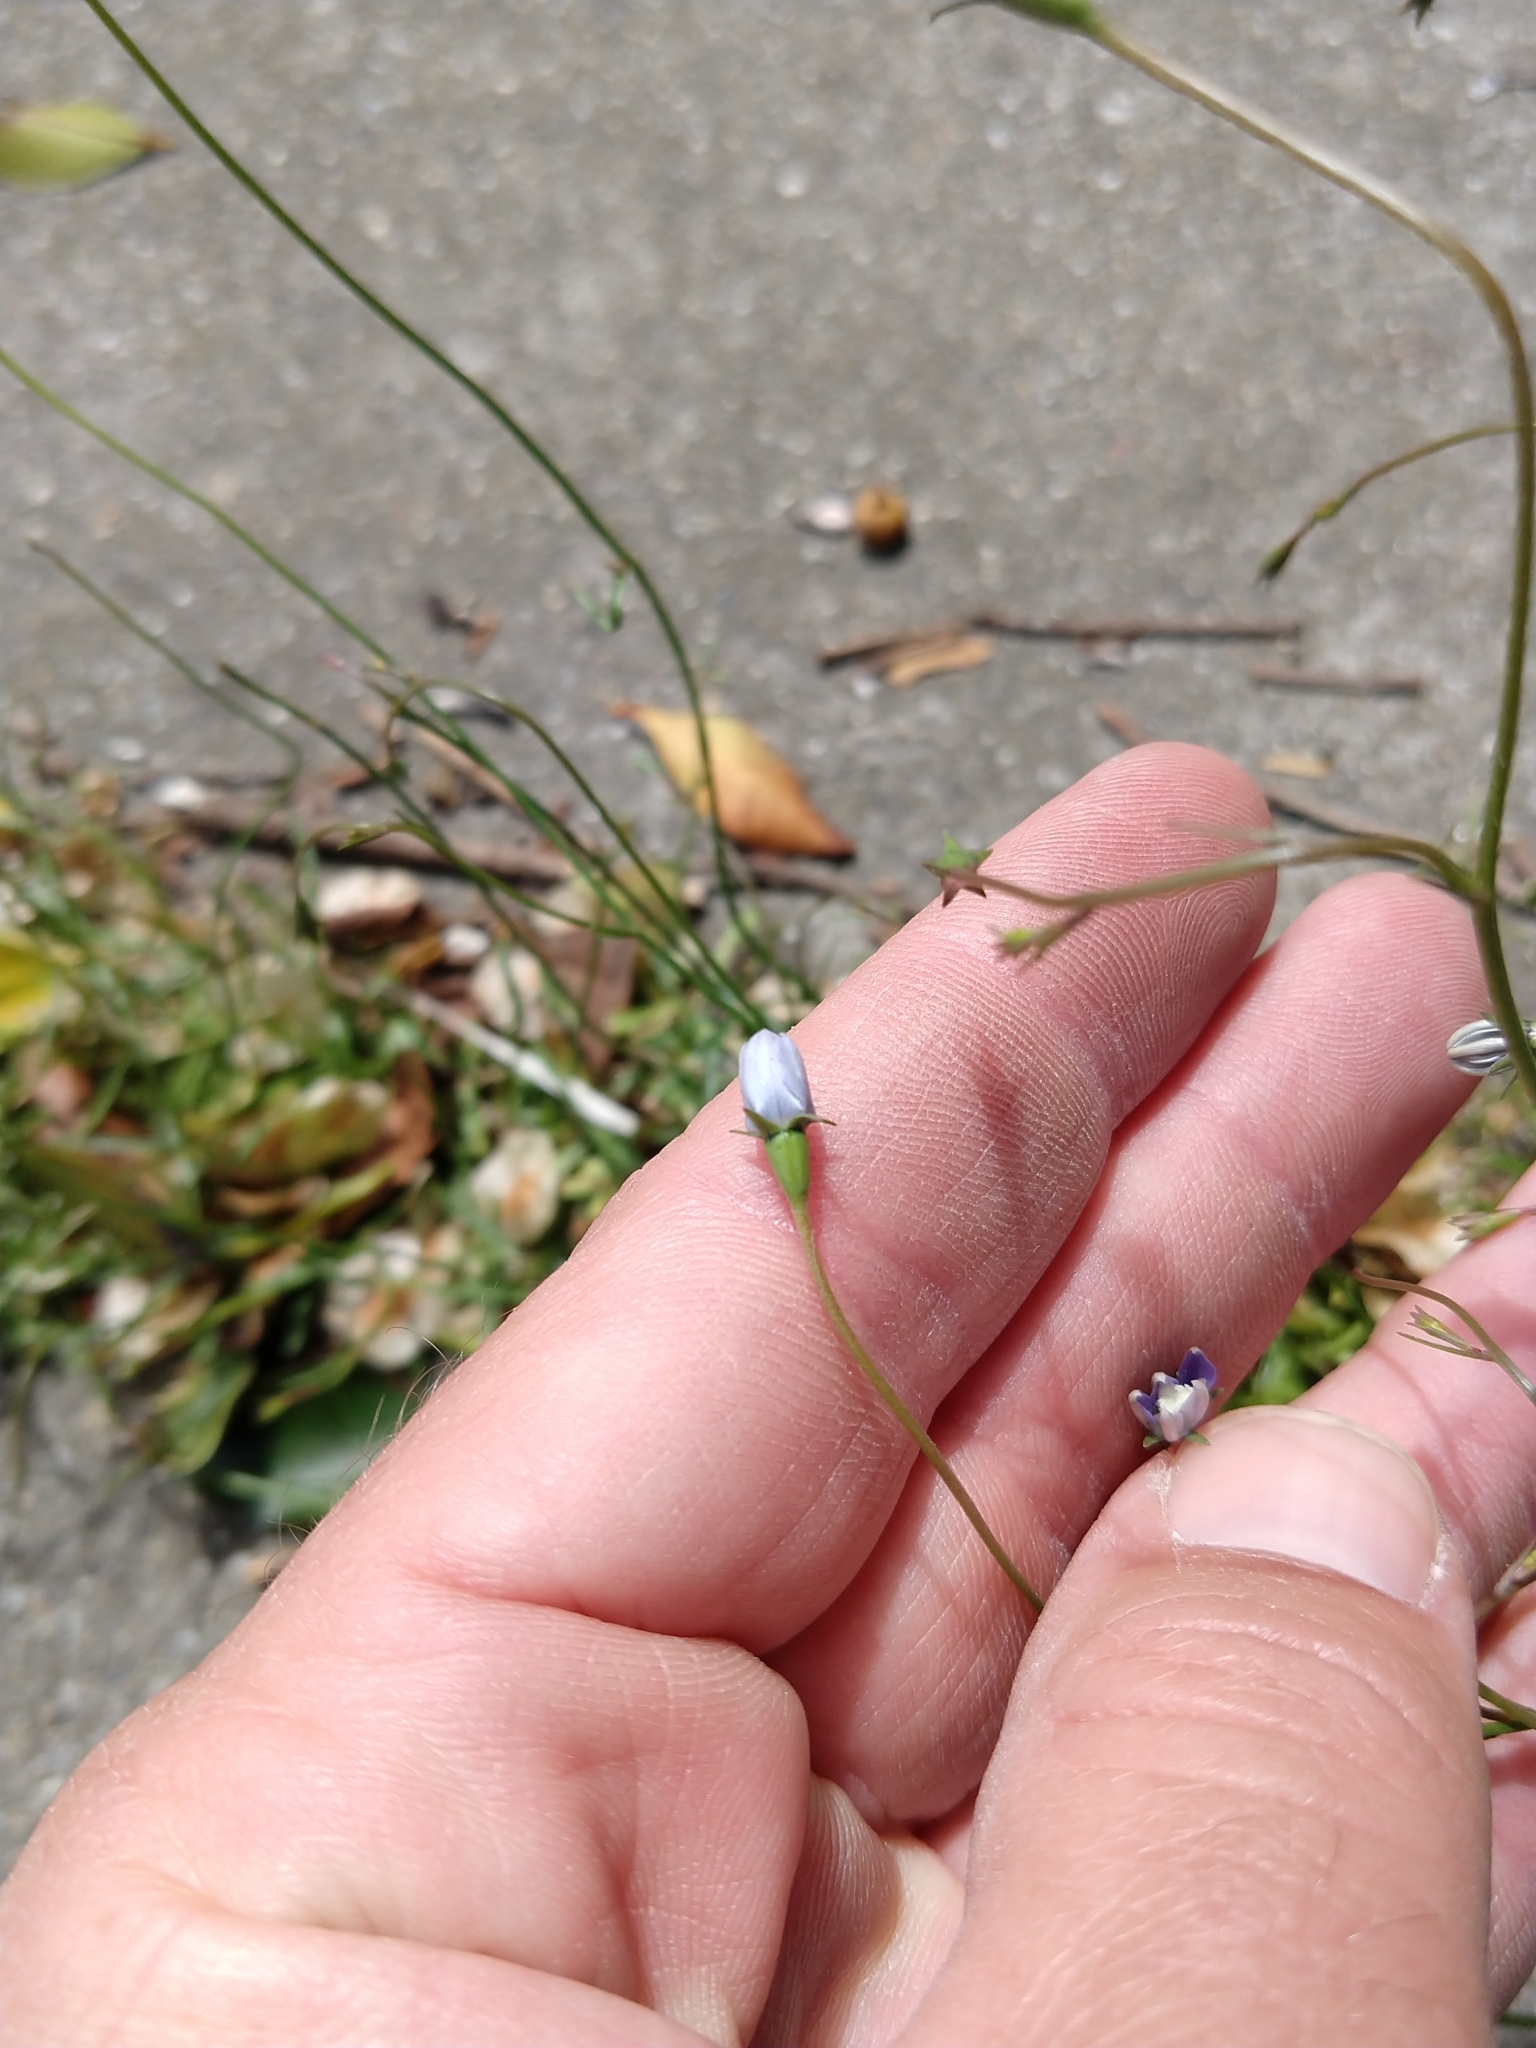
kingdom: Plantae
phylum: Tracheophyta
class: Magnoliopsida
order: Asterales
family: Campanulaceae
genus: Wahlenbergia
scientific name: Wahlenbergia marginata
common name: Southern rockbell
